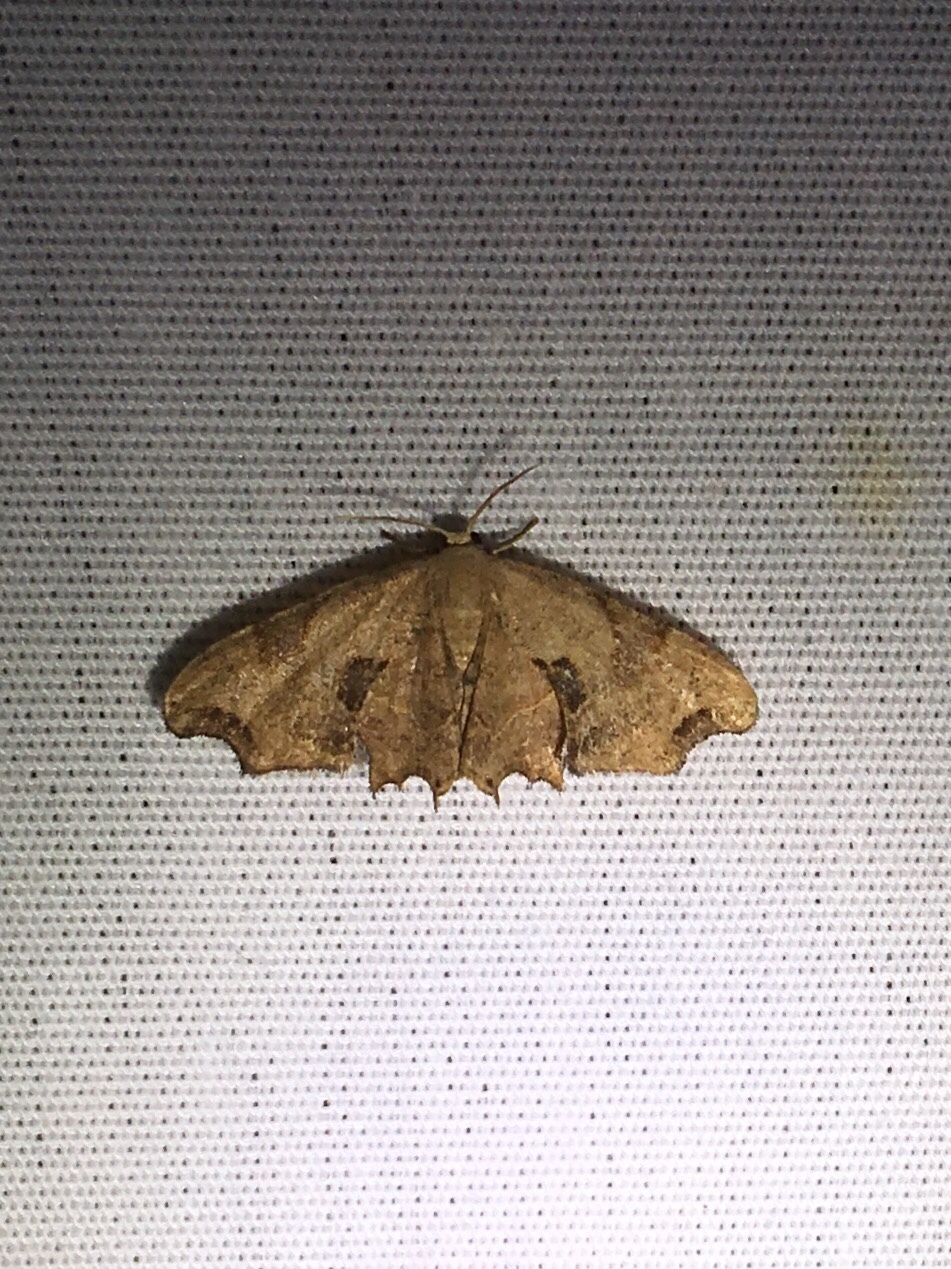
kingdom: Animalia
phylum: Arthropoda
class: Insecta
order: Lepidoptera
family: Uraniidae
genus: Epiplema
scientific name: Epiplema Calledapteryx dryopterata
